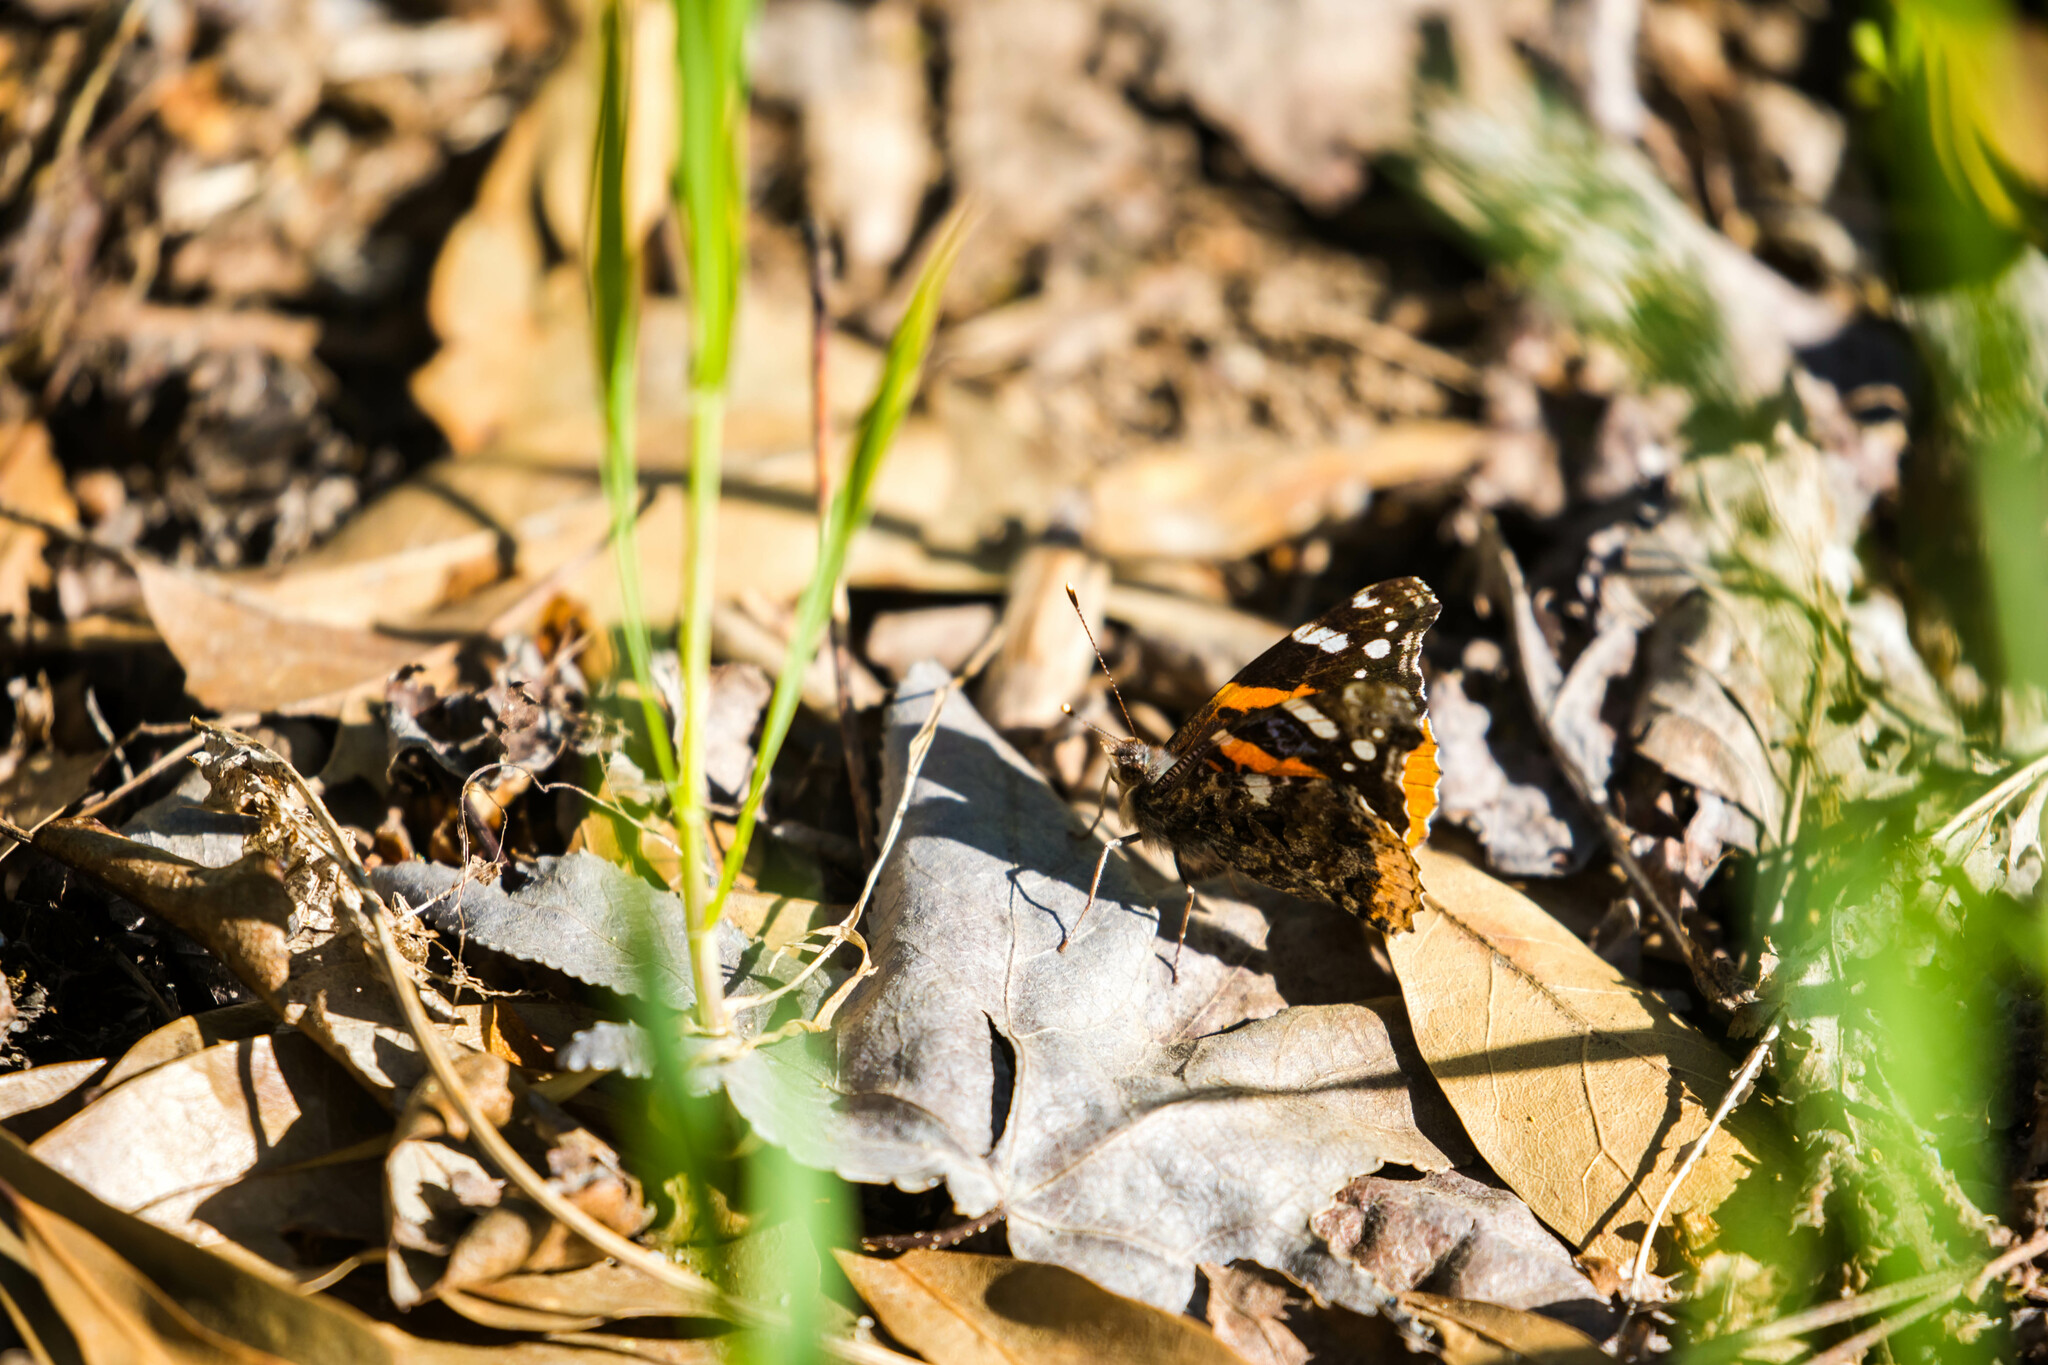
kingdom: Animalia
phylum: Arthropoda
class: Insecta
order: Lepidoptera
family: Nymphalidae
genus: Vanessa
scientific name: Vanessa atalanta
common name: Red admiral
